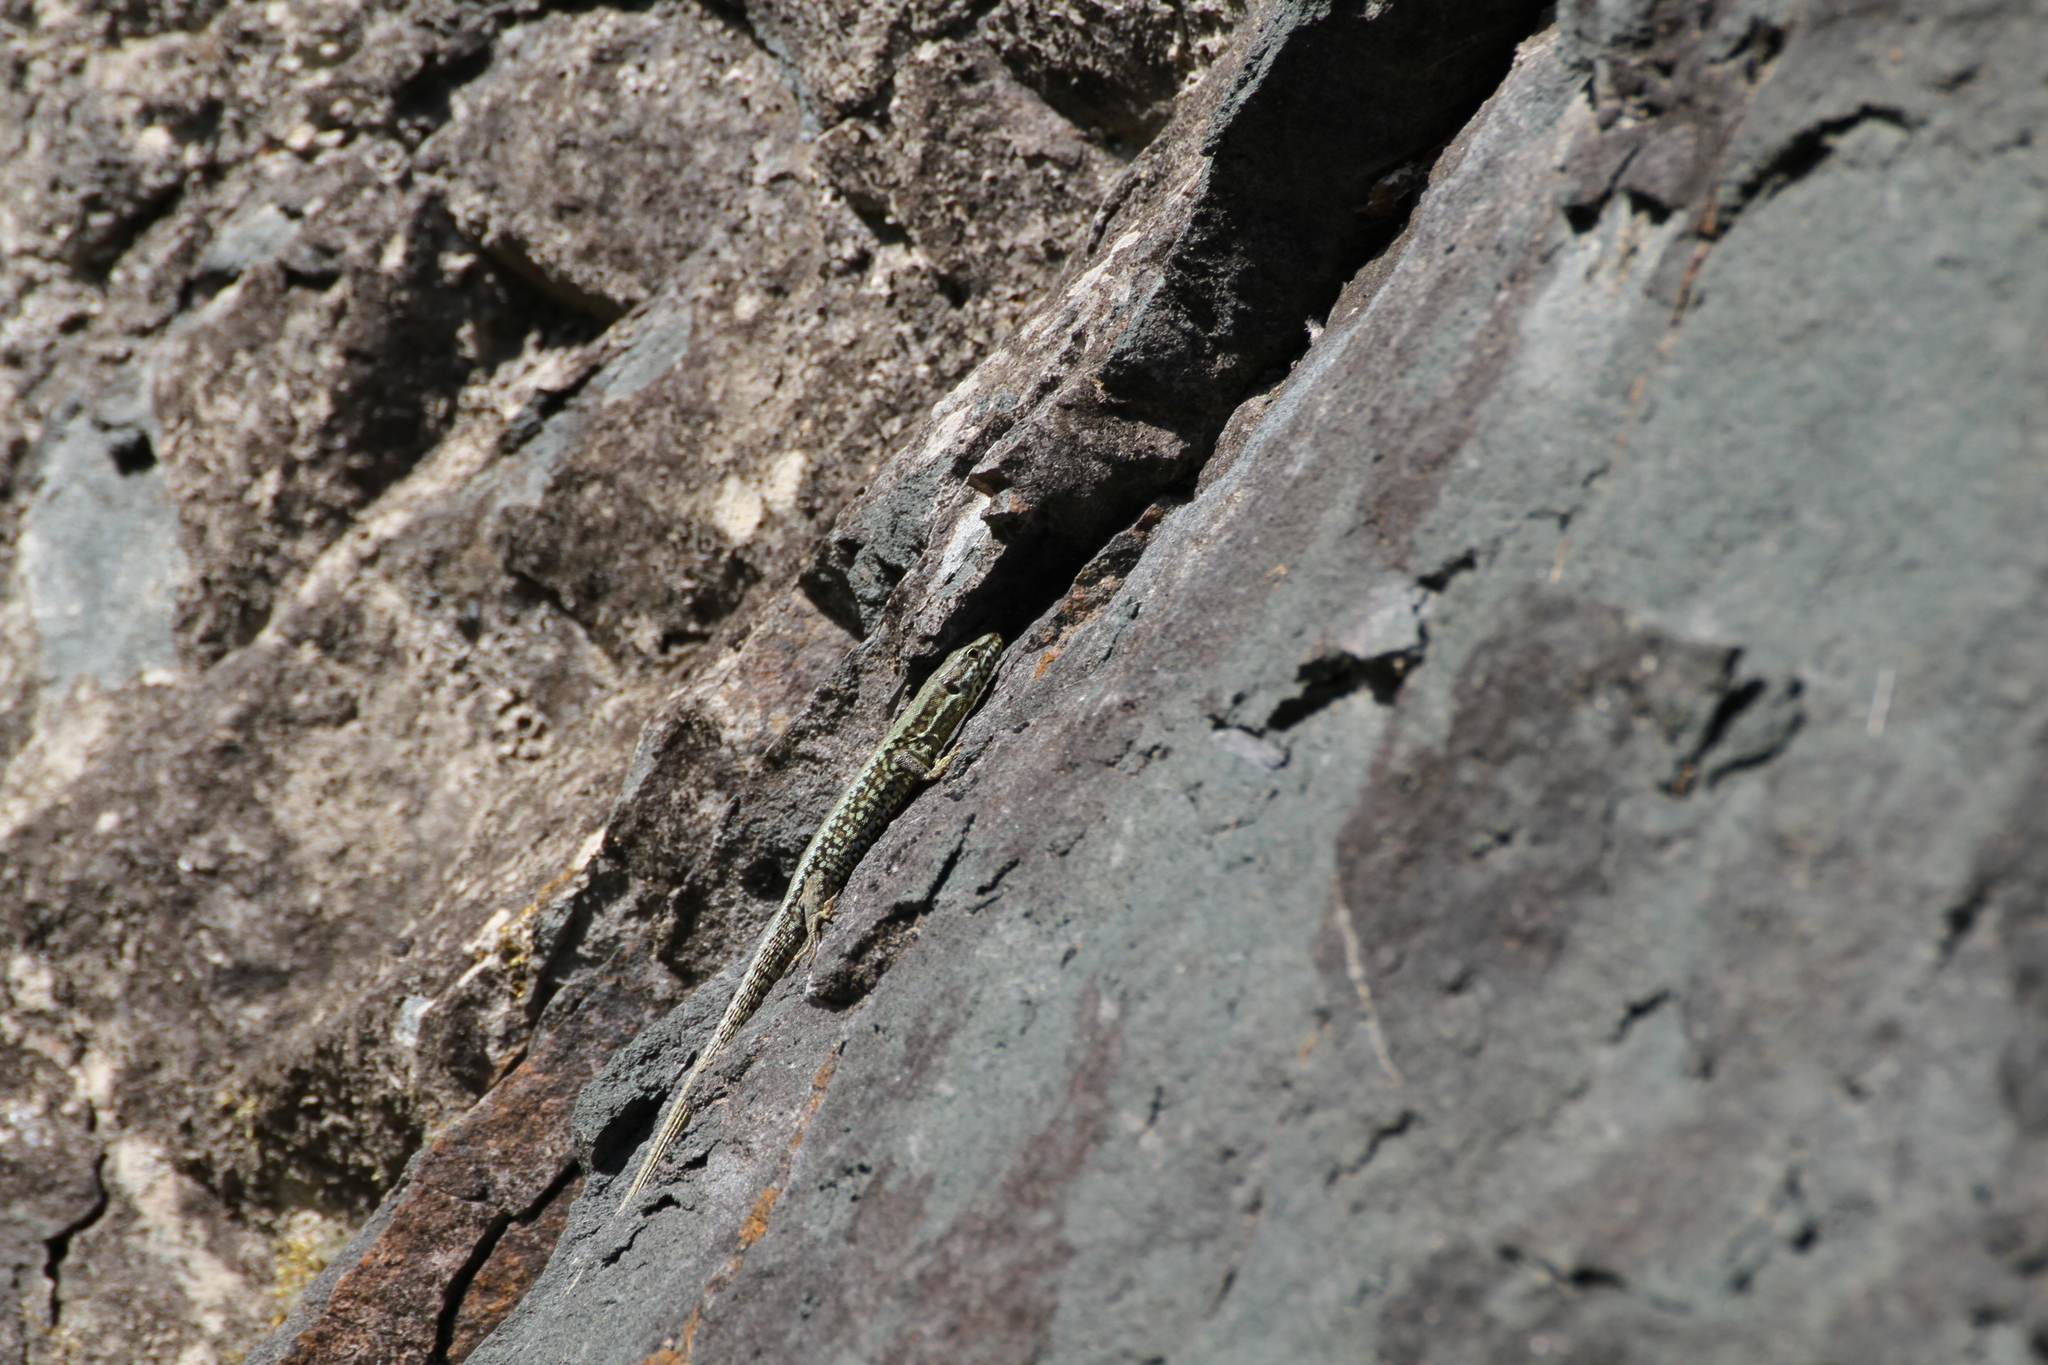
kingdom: Animalia
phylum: Chordata
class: Squamata
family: Lacertidae
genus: Podarcis
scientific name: Podarcis muralis
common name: Common wall lizard
